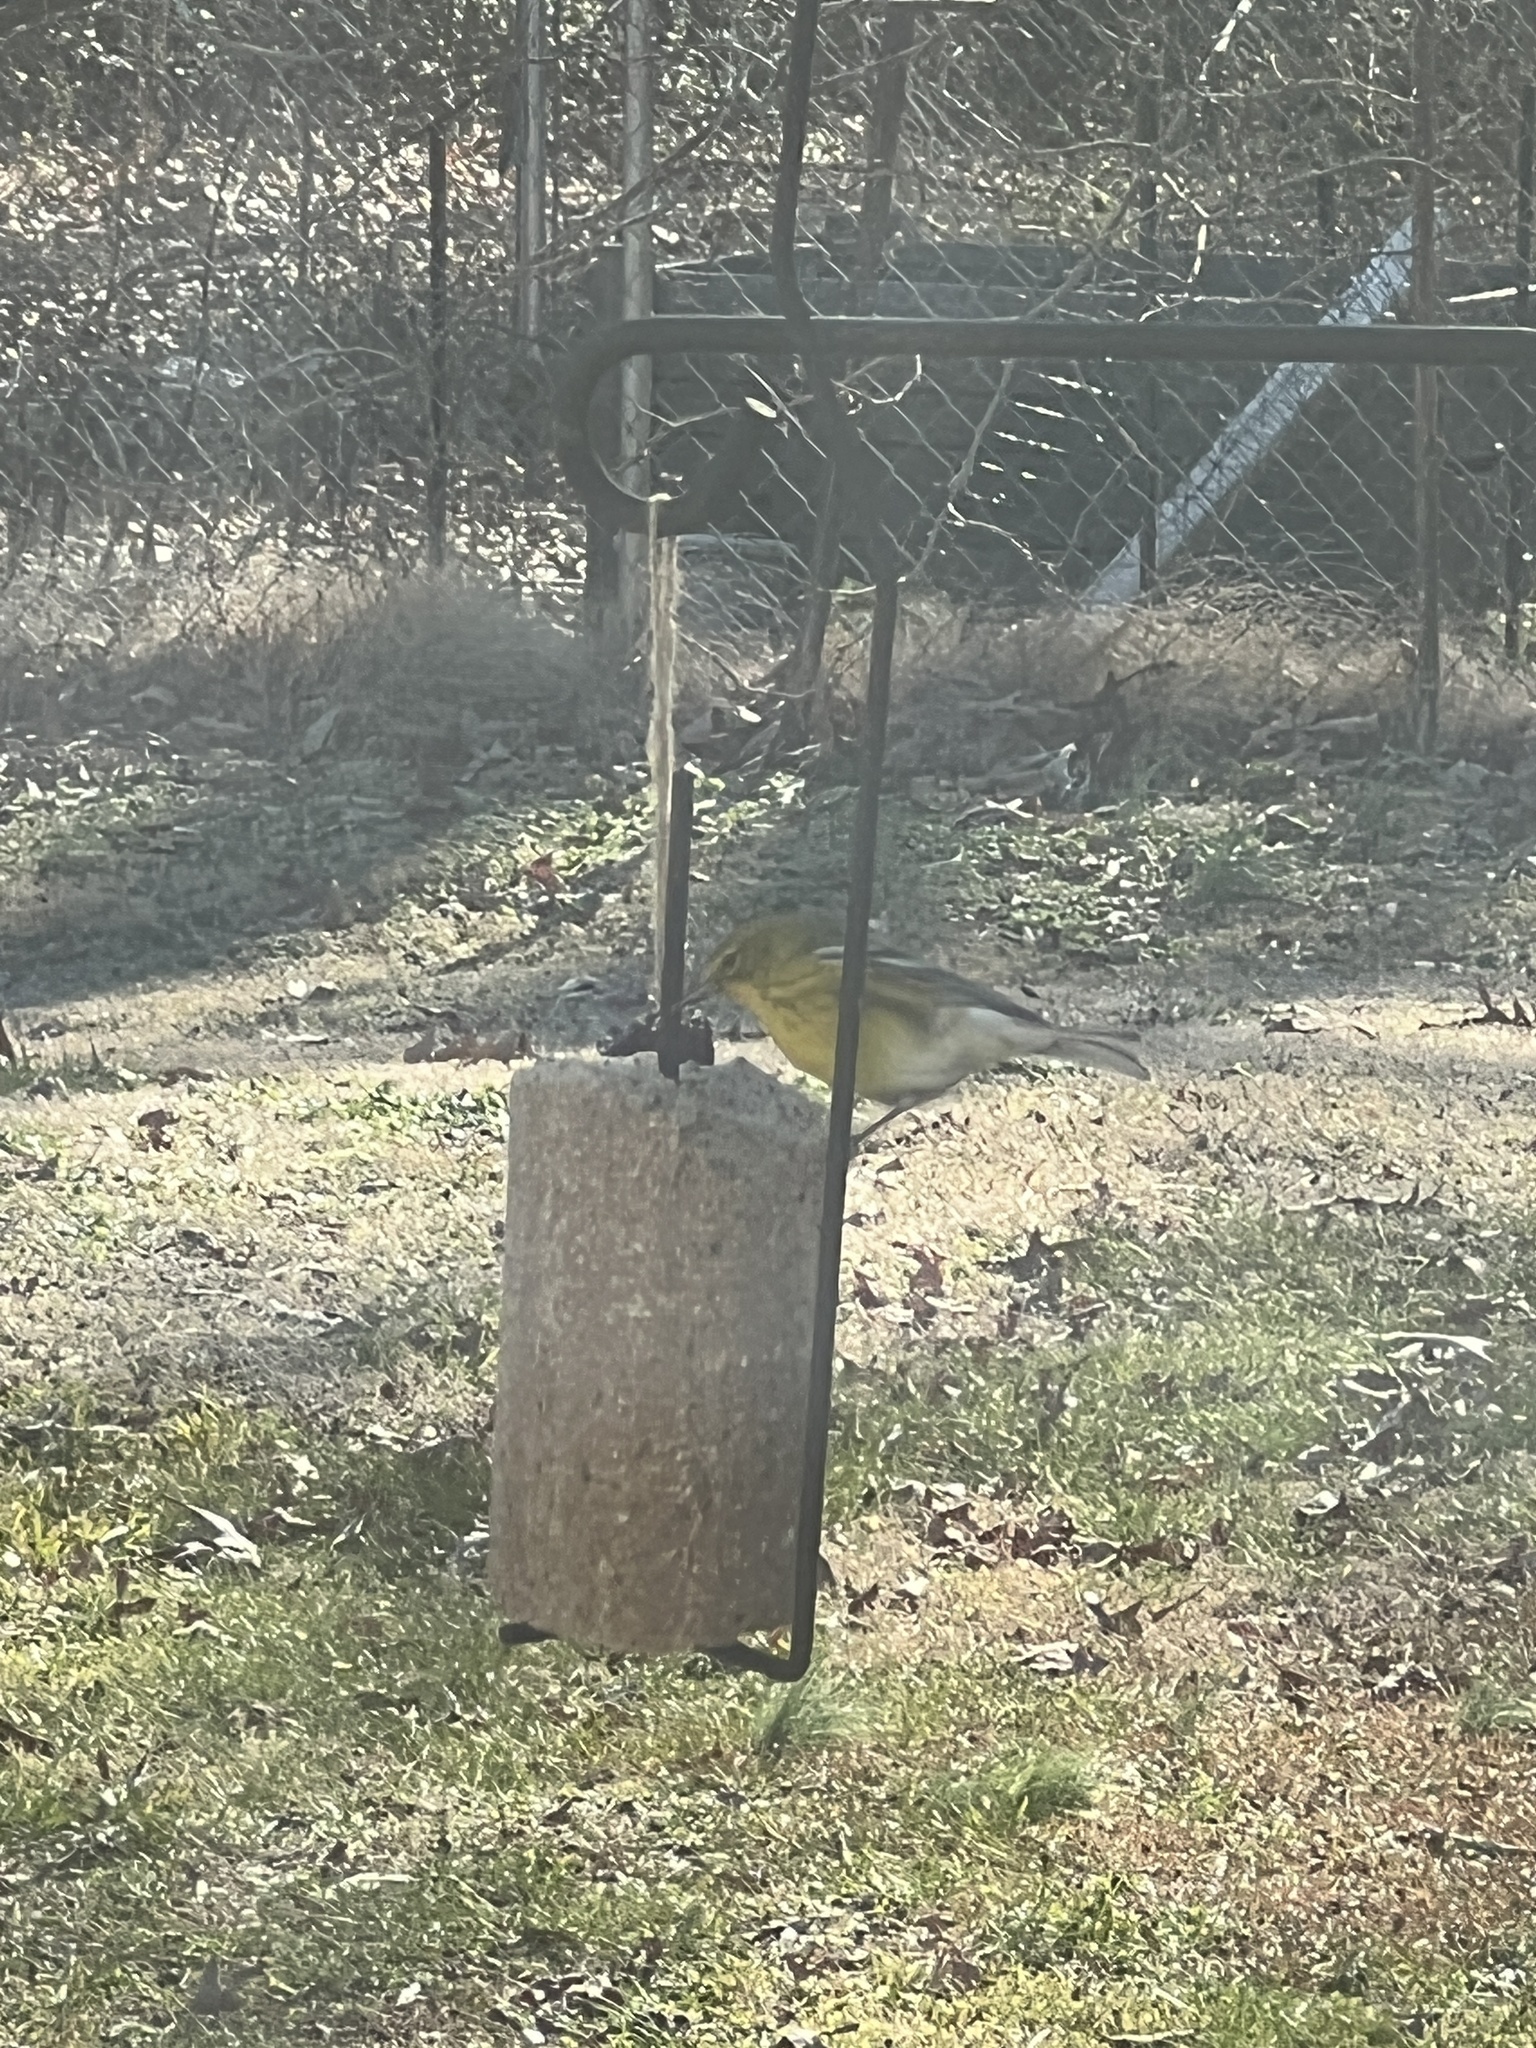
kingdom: Animalia
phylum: Chordata
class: Aves
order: Passeriformes
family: Parulidae
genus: Setophaga
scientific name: Setophaga pinus
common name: Pine warbler
